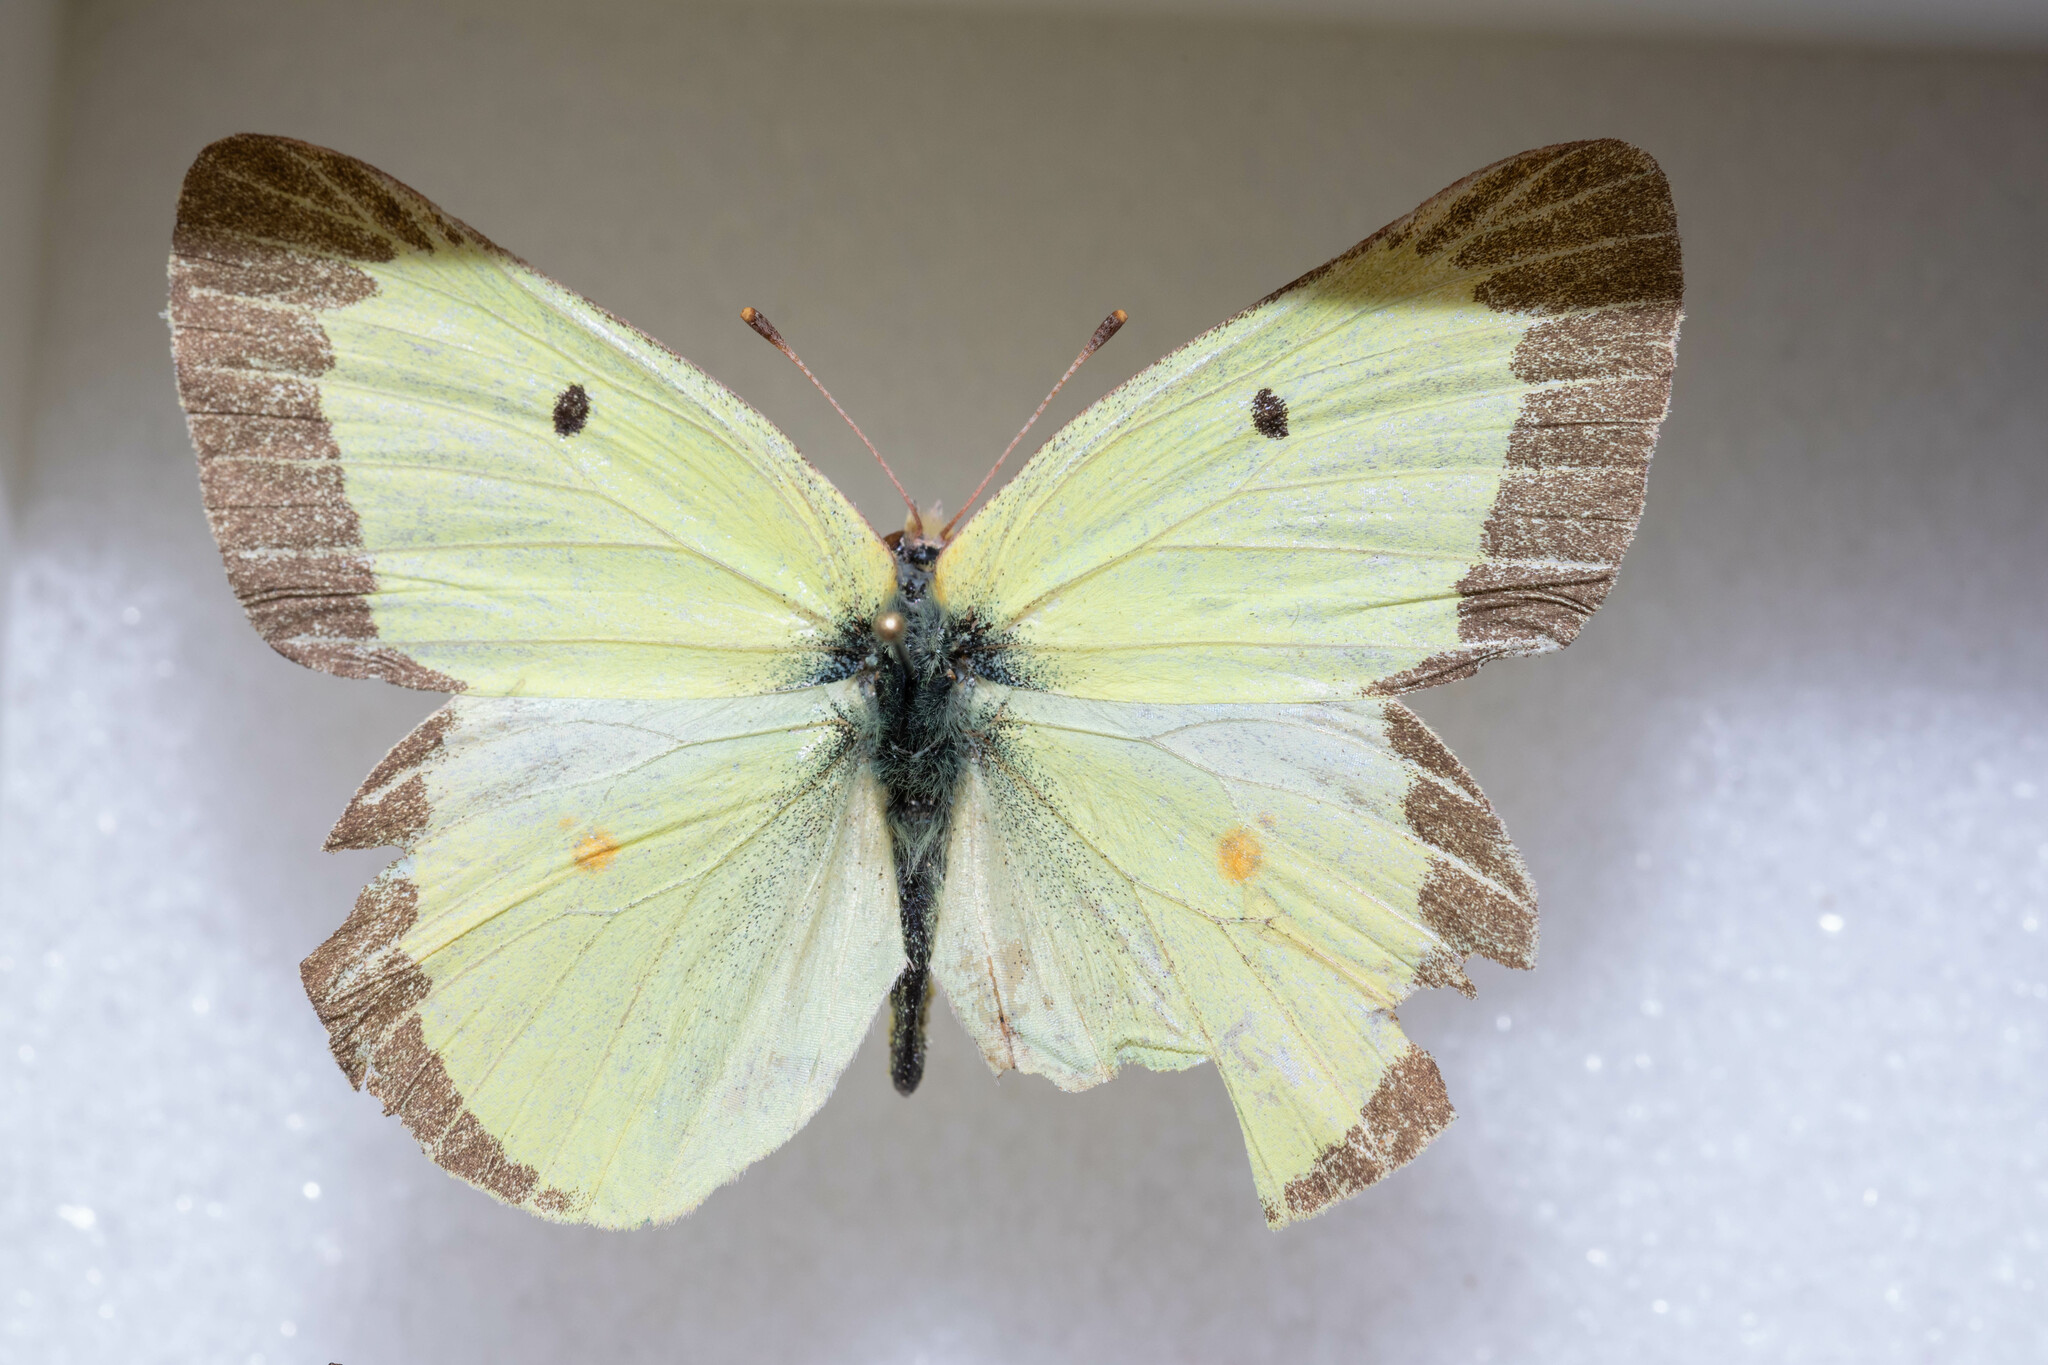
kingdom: Animalia
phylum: Arthropoda
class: Insecta
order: Lepidoptera
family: Pieridae
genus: Colias
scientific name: Colias philodice
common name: Clouded sulphur
